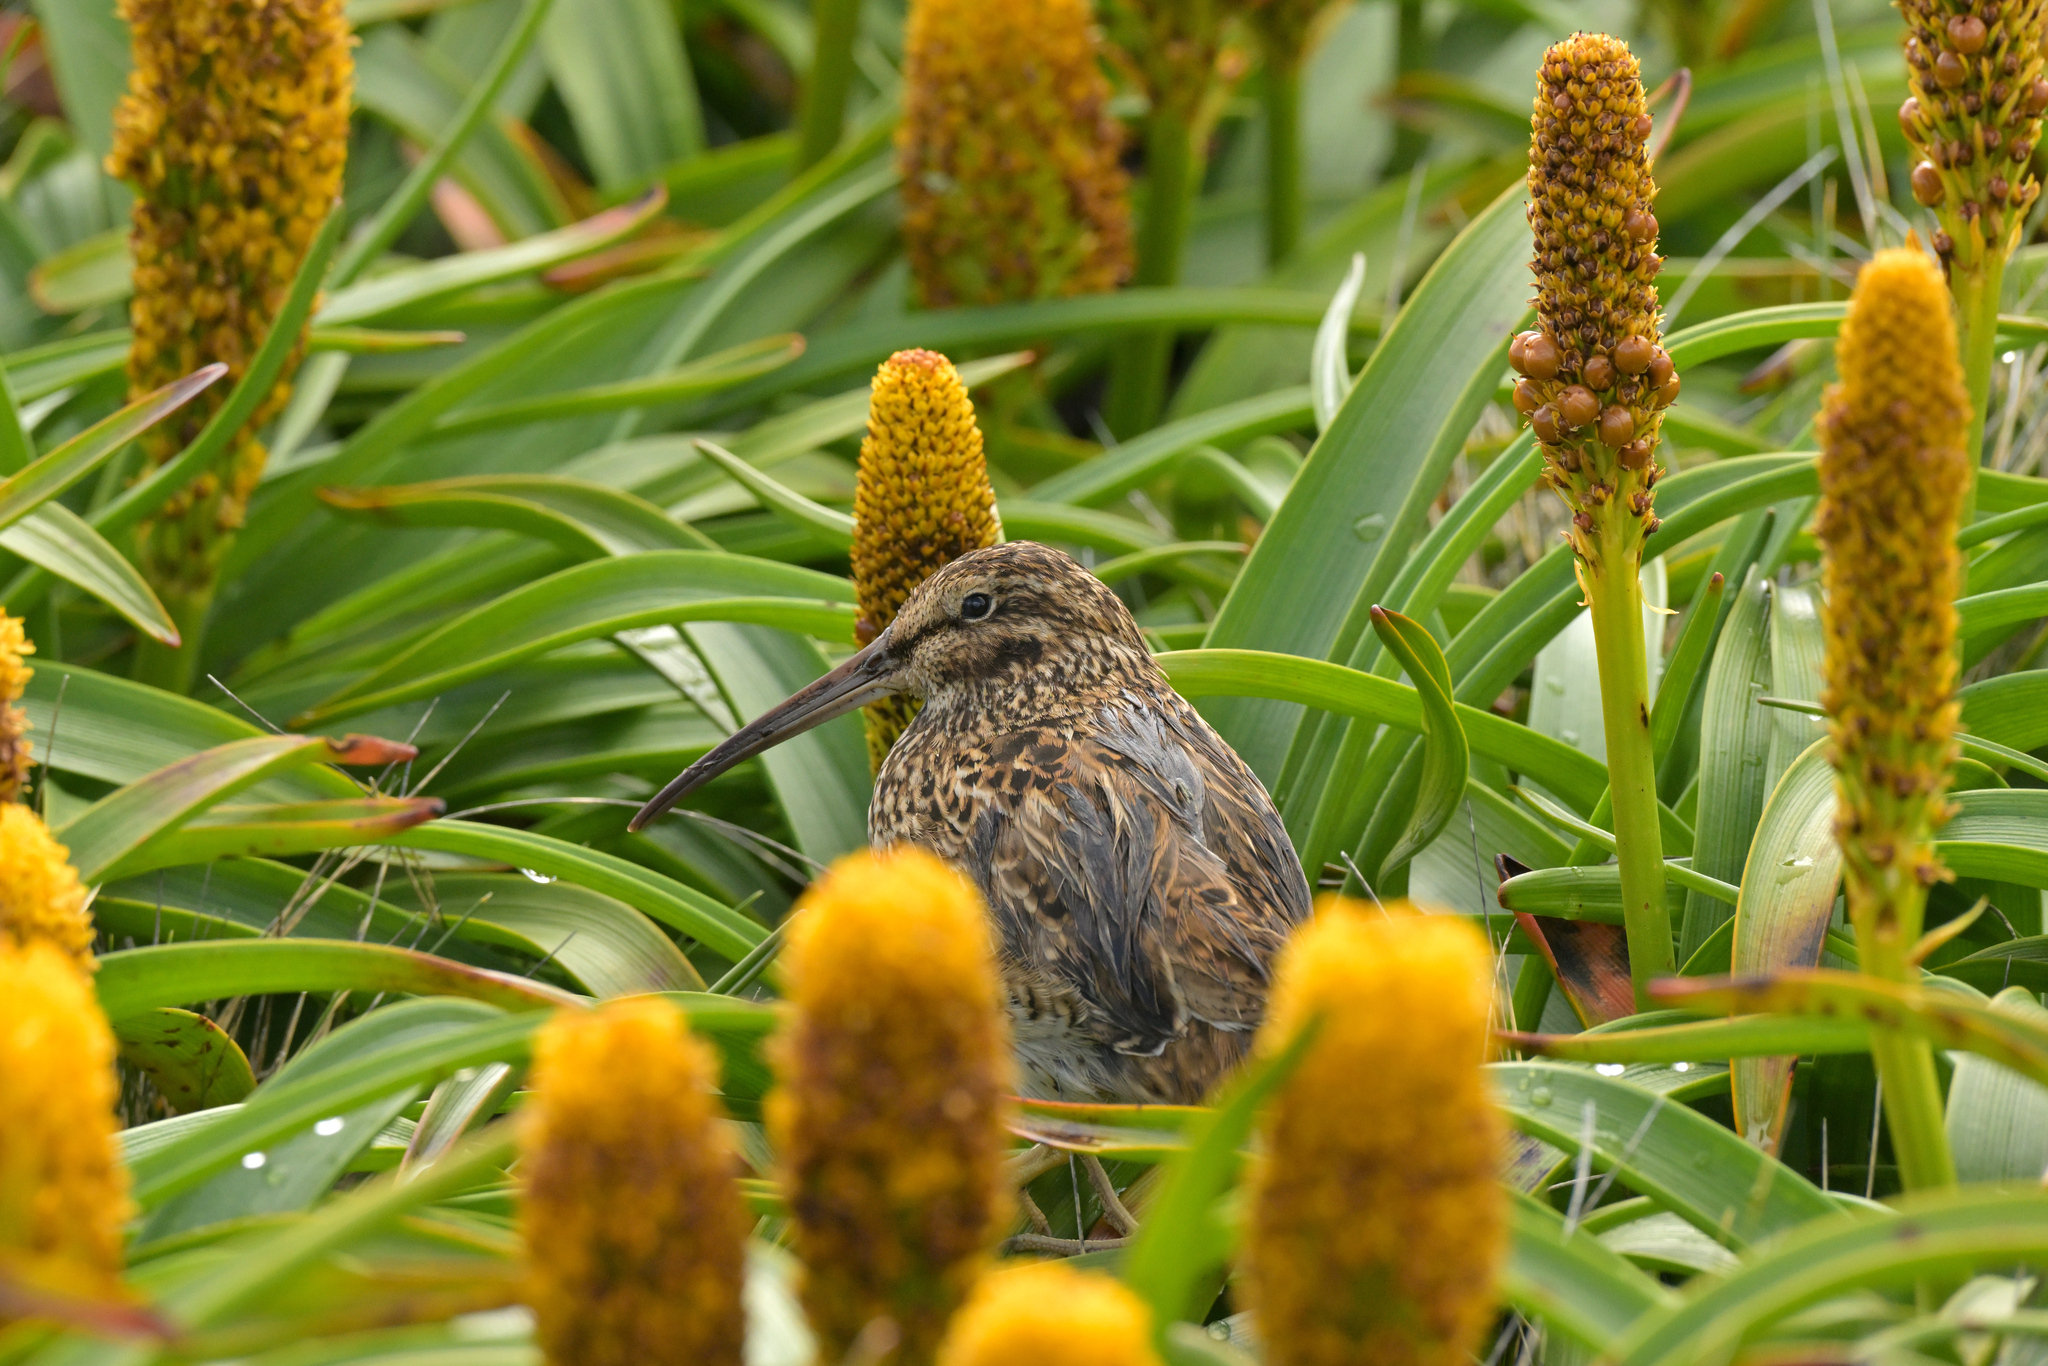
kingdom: Animalia
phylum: Chordata
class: Aves
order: Charadriiformes
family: Scolopacidae
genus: Coenocorypha
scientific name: Coenocorypha aucklandica
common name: Subantarctic snipe
